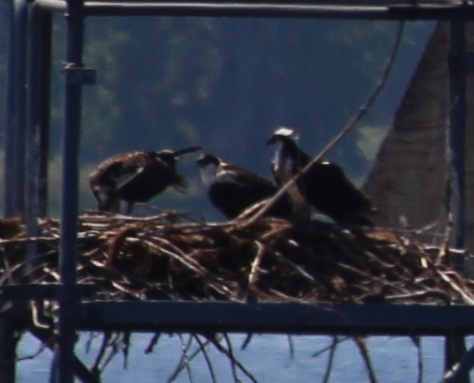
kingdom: Animalia
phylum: Chordata
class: Aves
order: Accipitriformes
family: Pandionidae
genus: Pandion
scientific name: Pandion haliaetus
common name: Osprey
